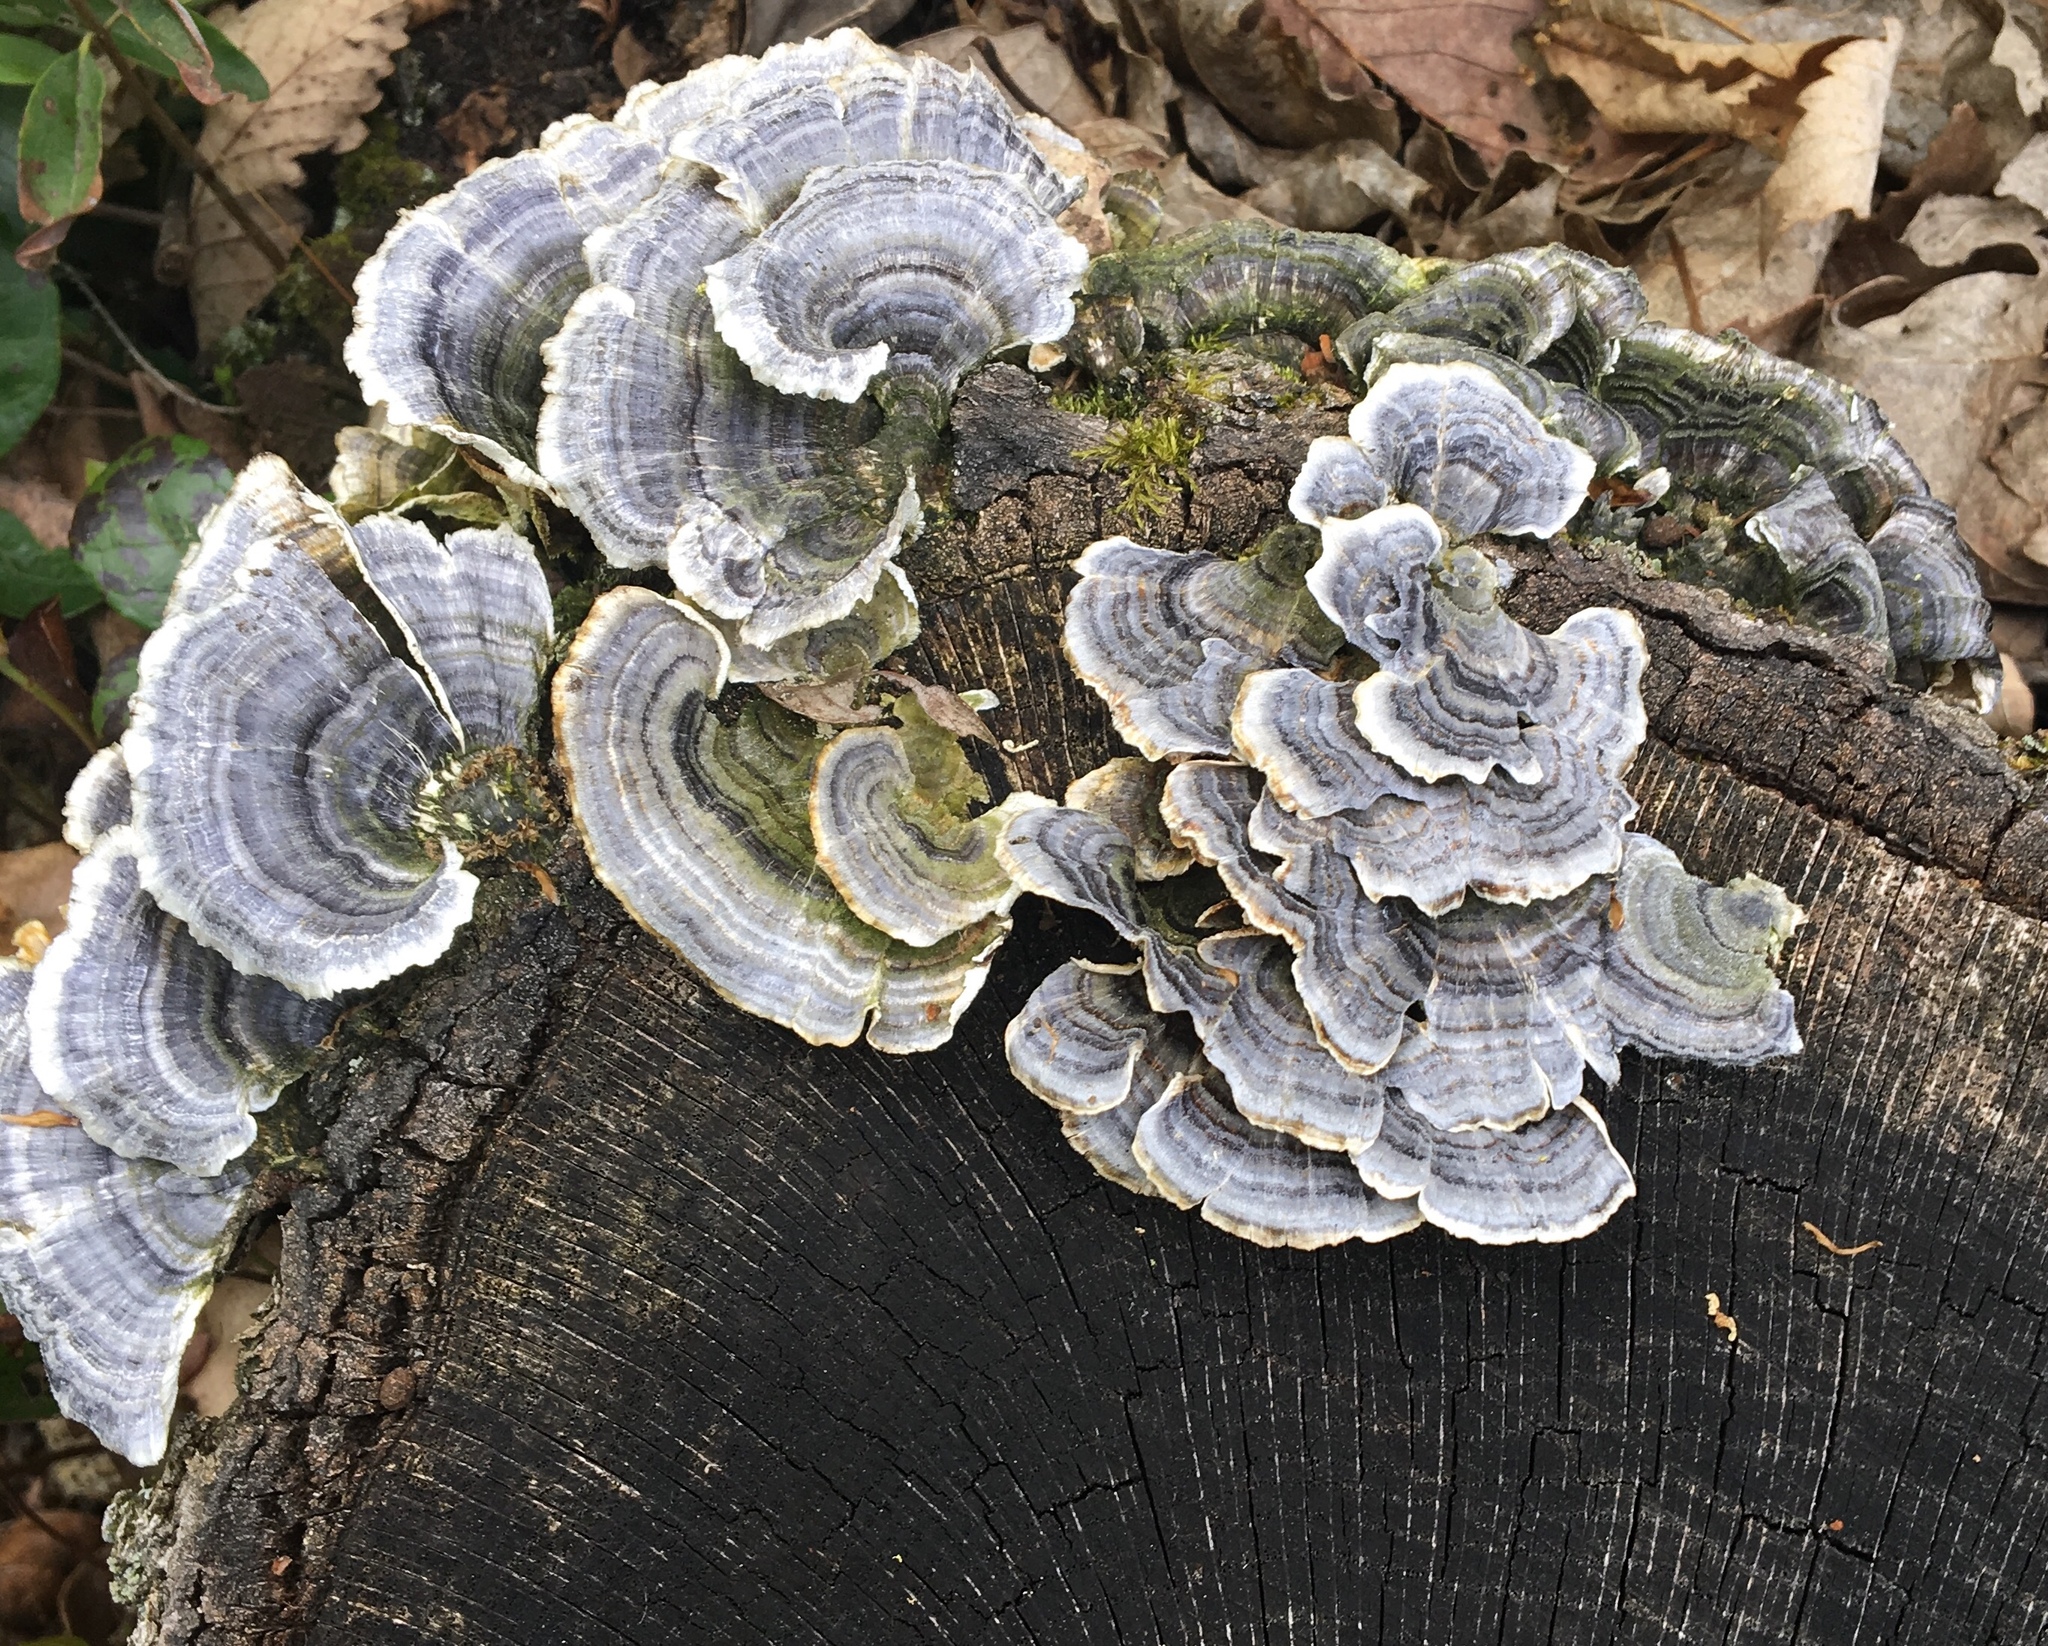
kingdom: Fungi
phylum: Basidiomycota
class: Agaricomycetes
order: Polyporales
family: Polyporaceae
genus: Trametes
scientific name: Trametes versicolor
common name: Turkeytail
